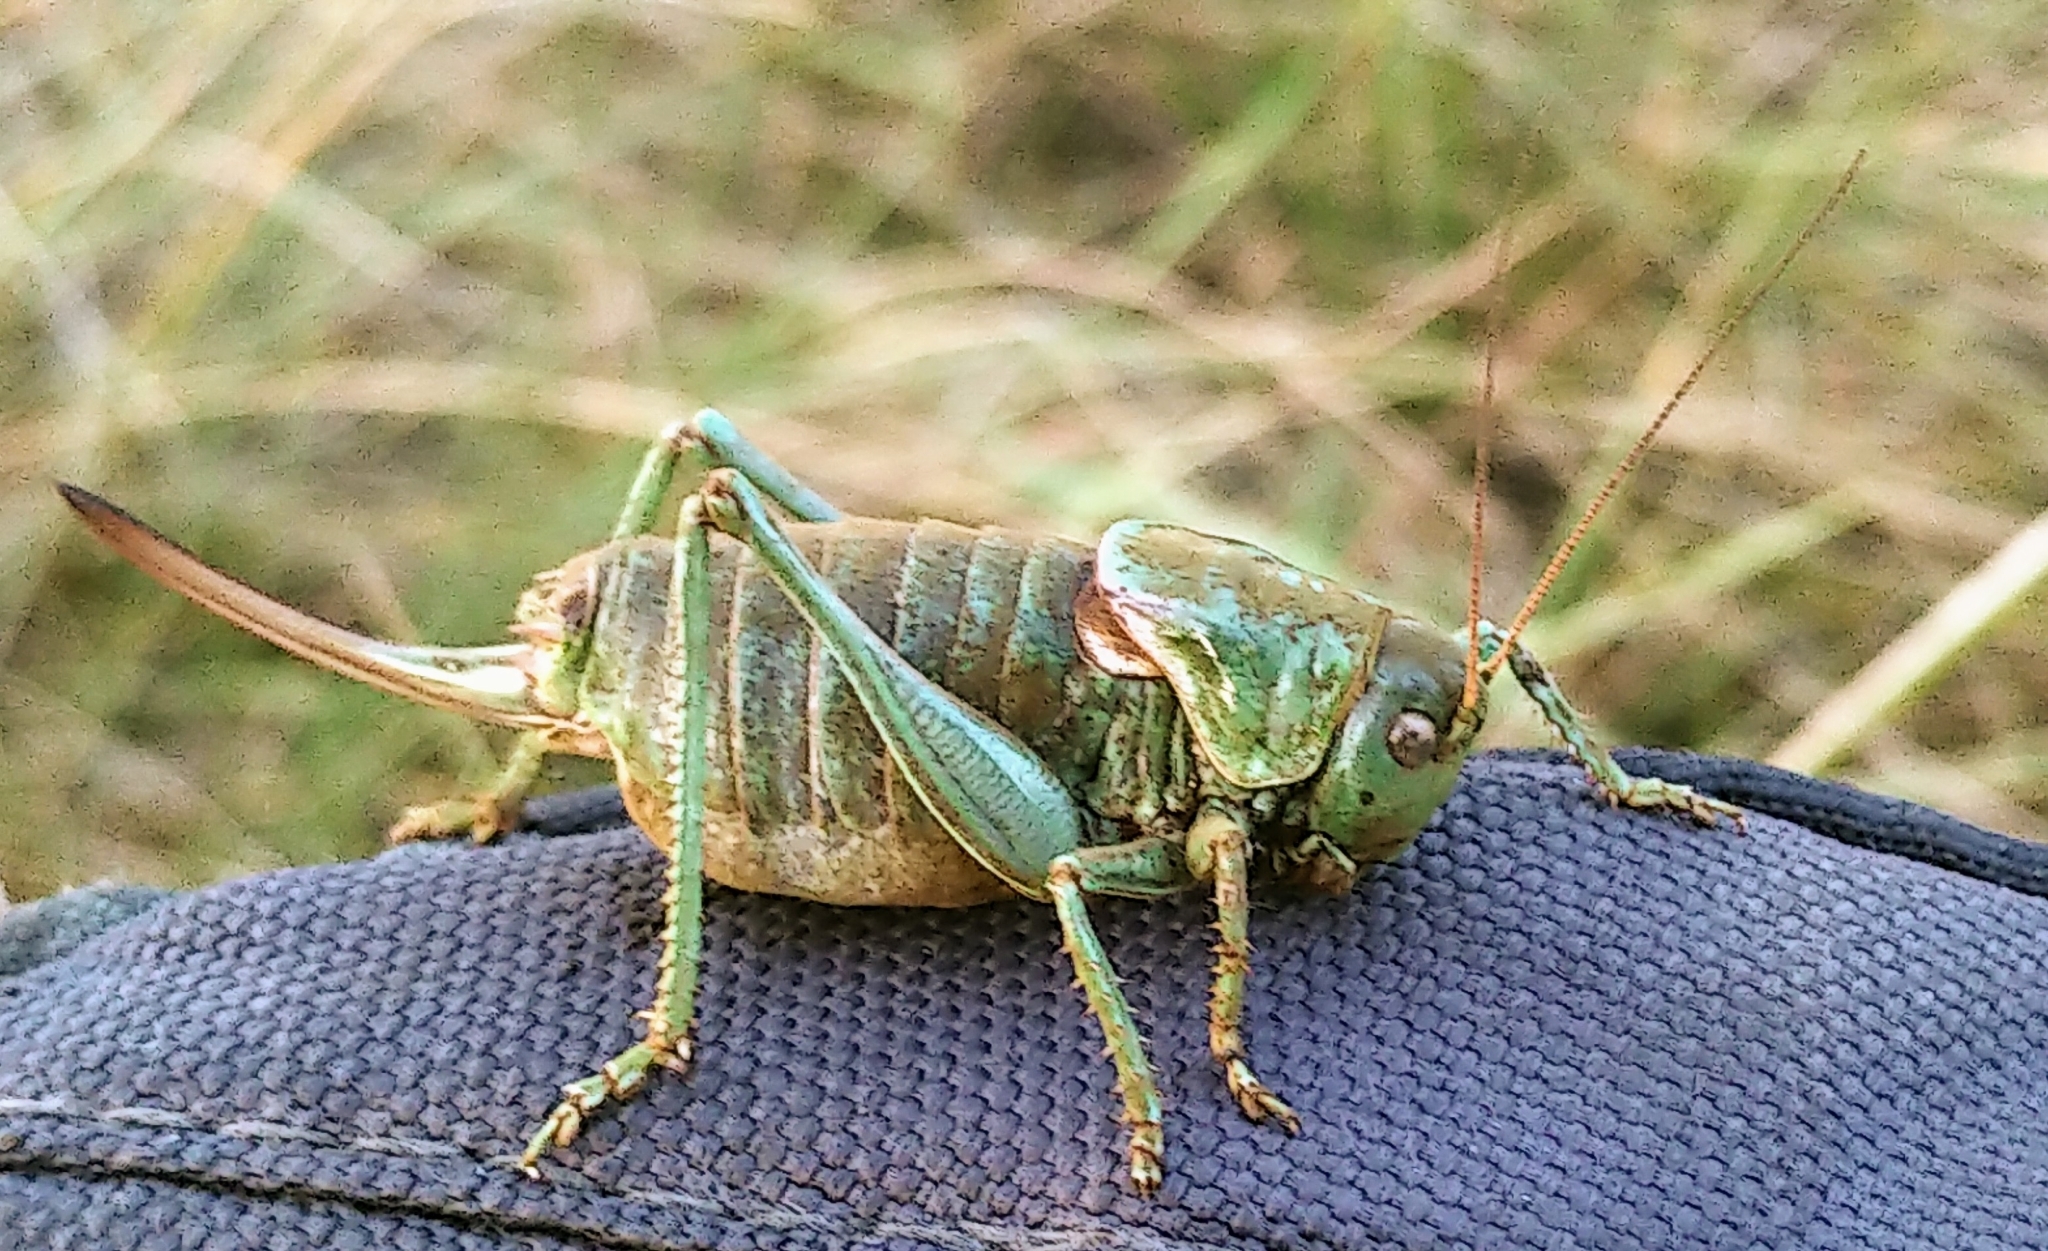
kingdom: Animalia
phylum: Arthropoda
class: Insecta
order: Orthoptera
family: Tettigoniidae
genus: Anabrus
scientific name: Anabrus simplex
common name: Mormon cricket
